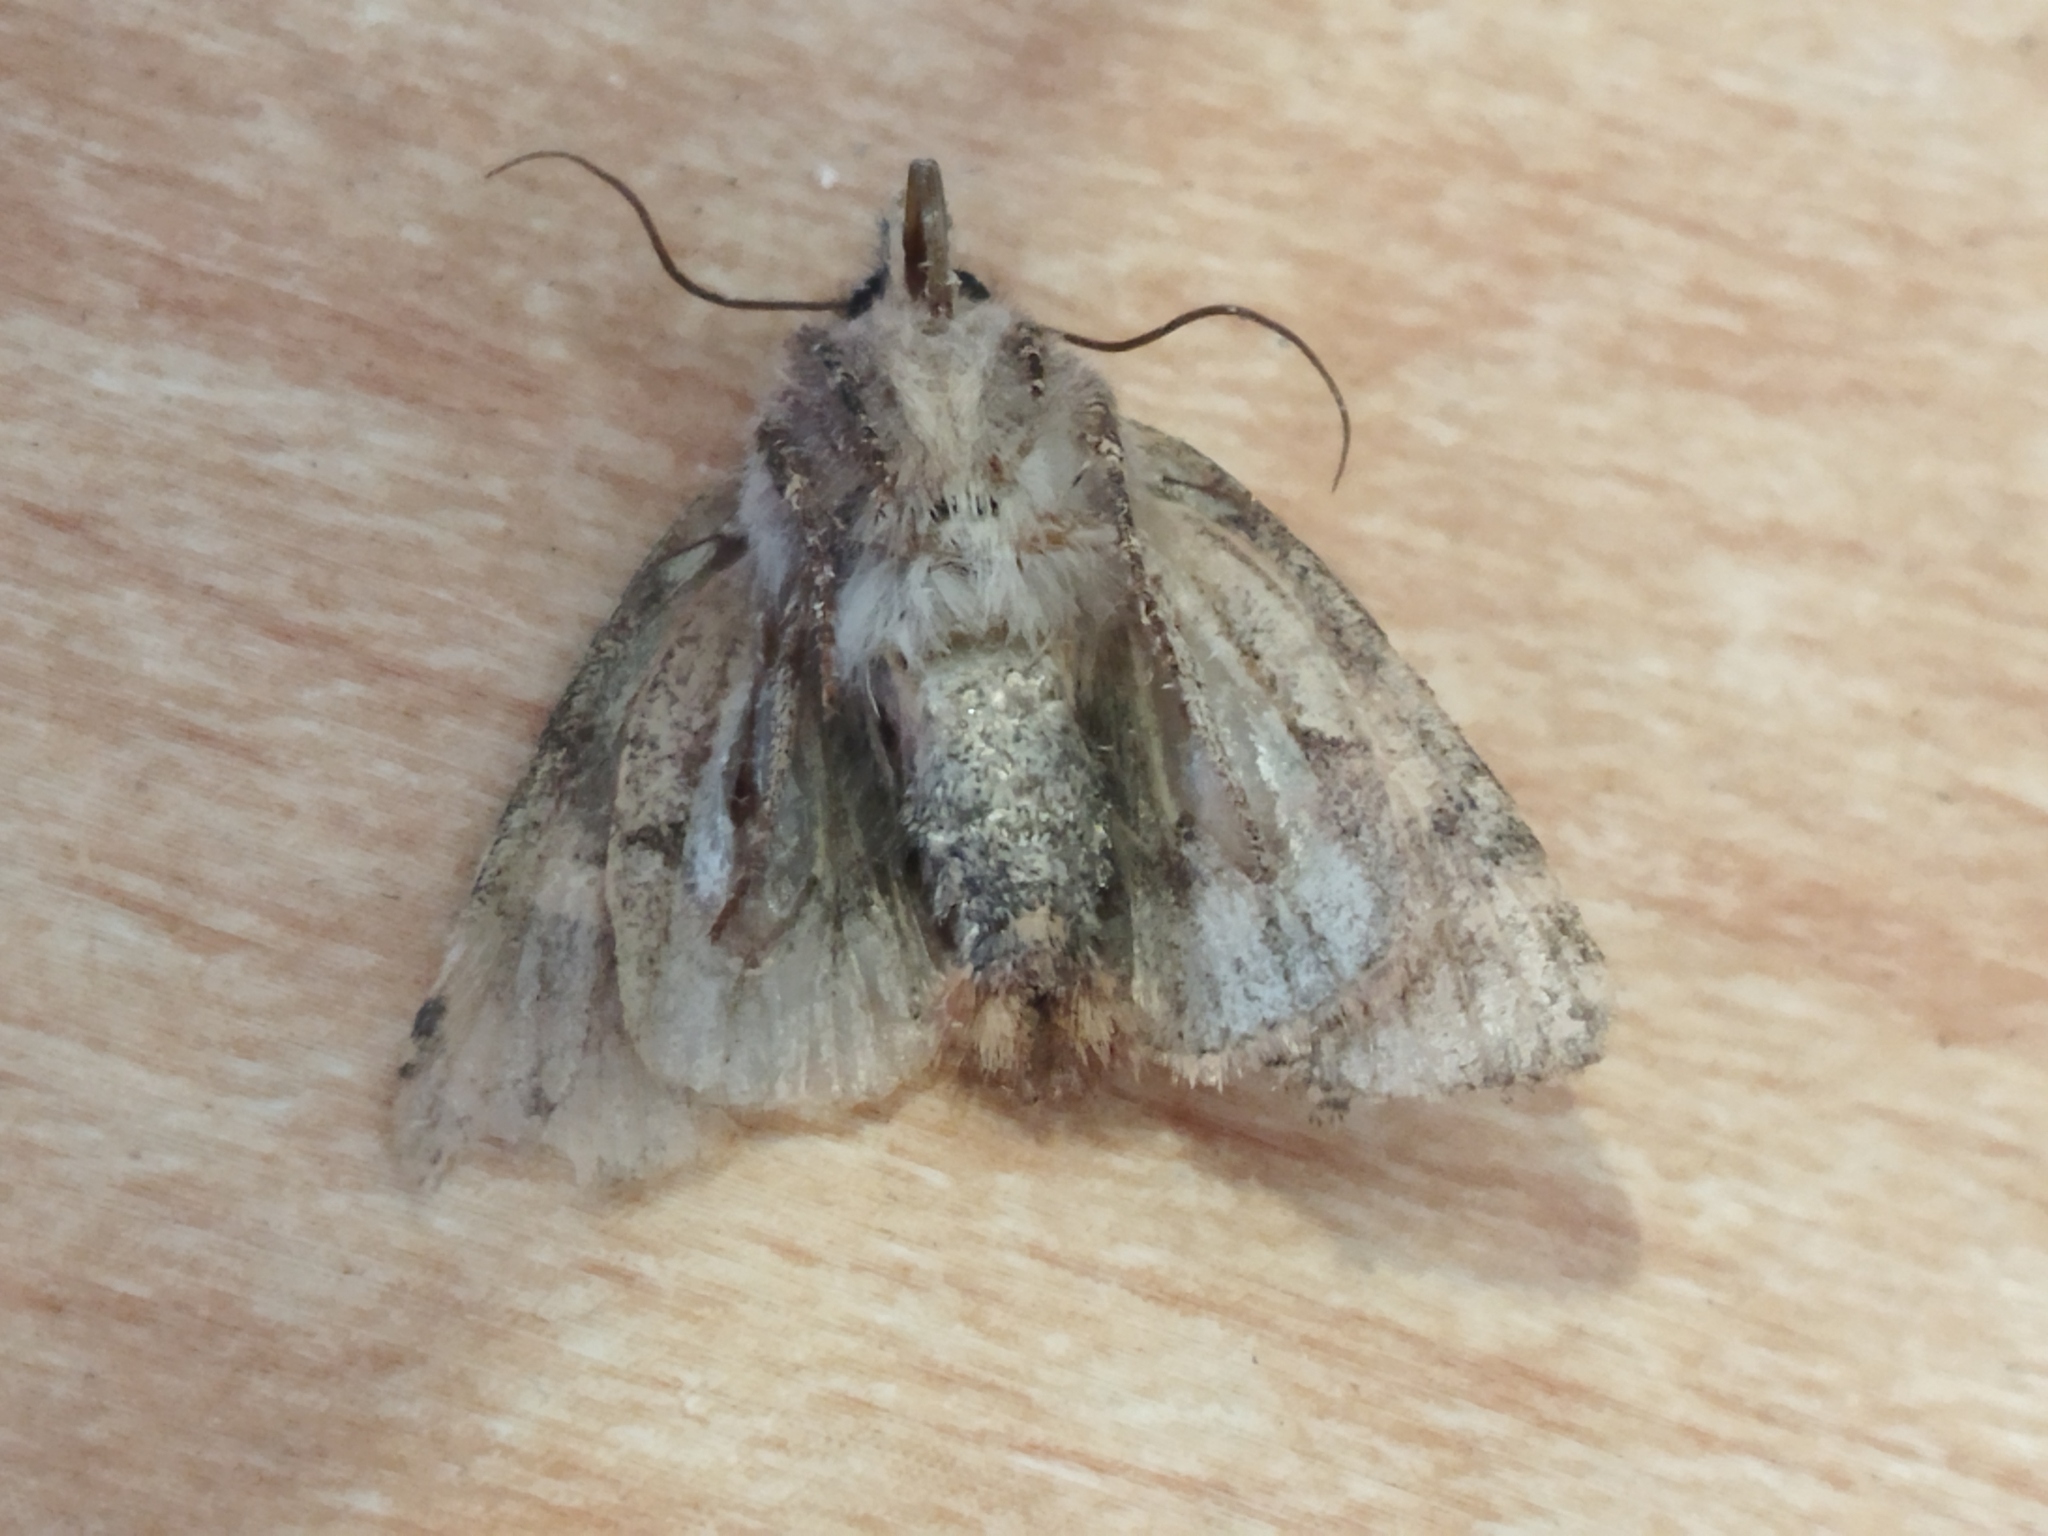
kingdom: Animalia
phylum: Arthropoda
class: Insecta
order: Lepidoptera
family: Noctuidae
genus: Rileyiana
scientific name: Rileyiana fovea
